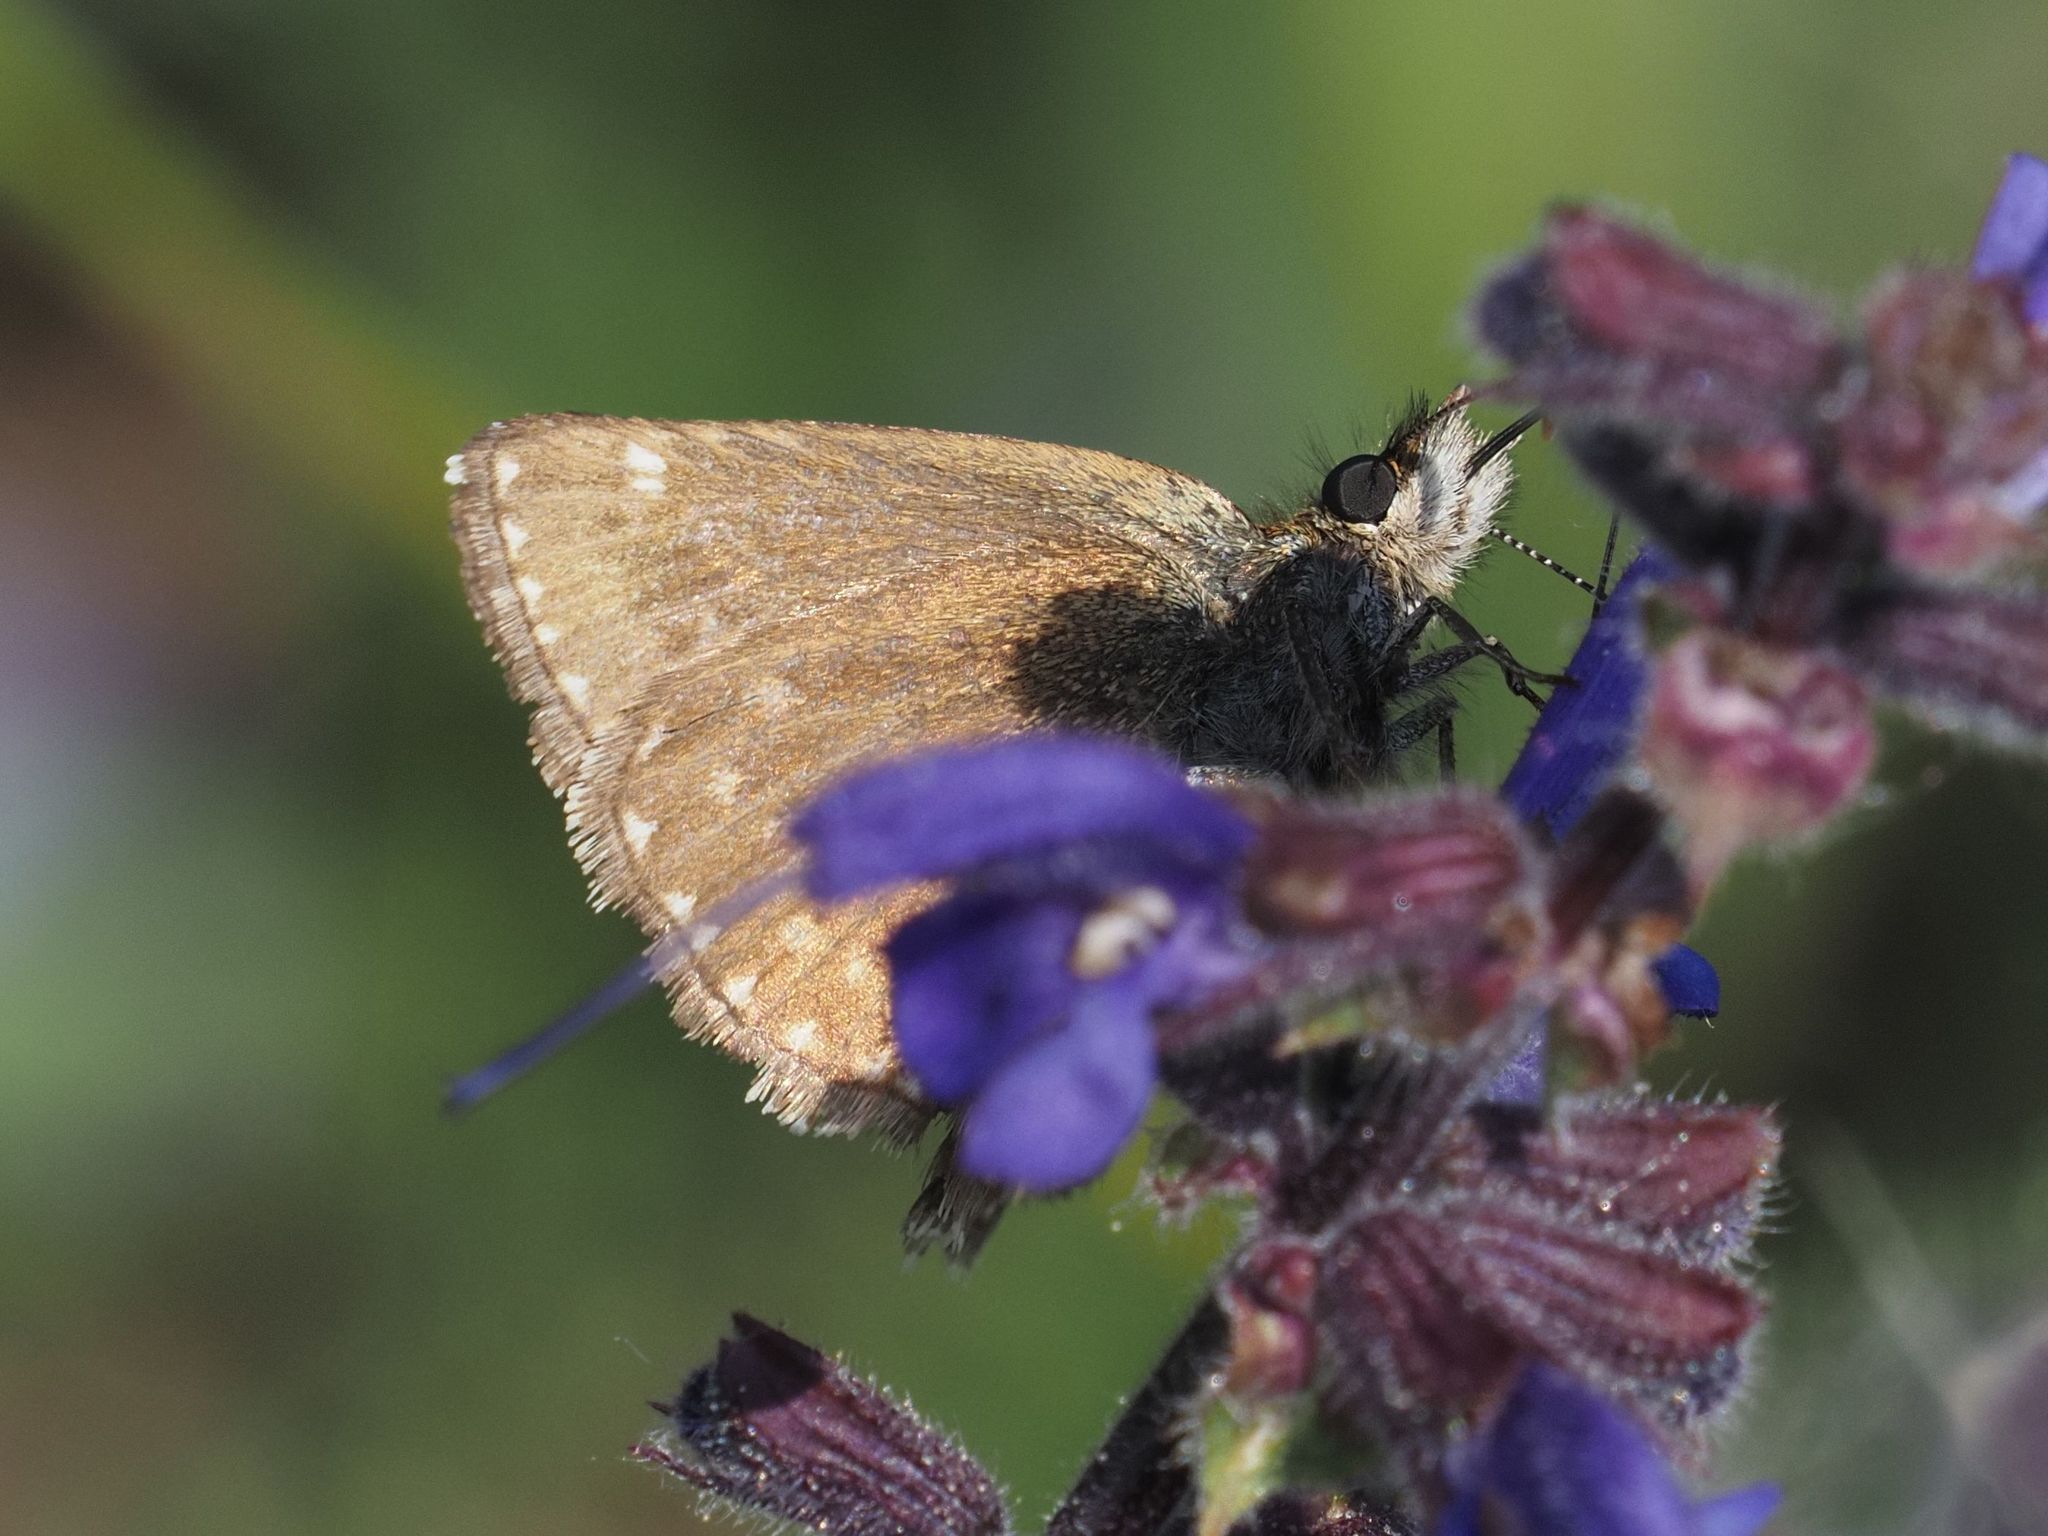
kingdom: Animalia
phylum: Arthropoda
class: Insecta
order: Lepidoptera
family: Hesperiidae
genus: Erynnis
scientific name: Erynnis tages
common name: Dingy skipper
